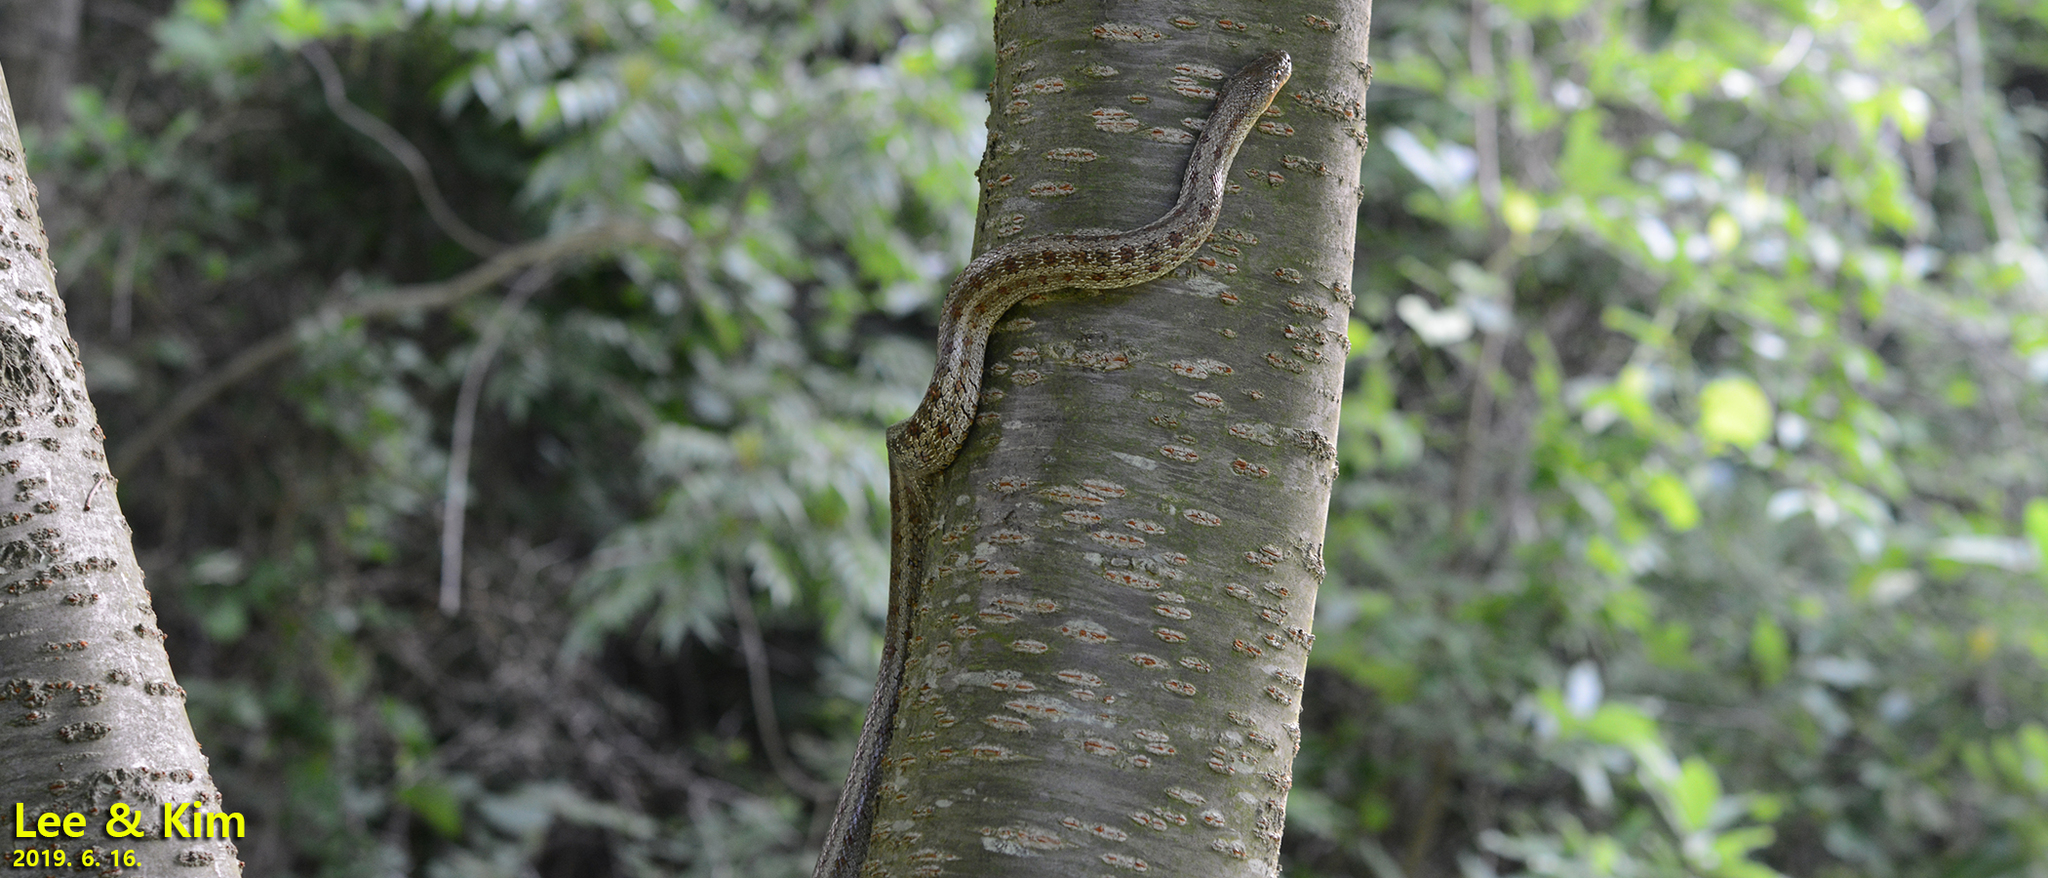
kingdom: Animalia
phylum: Chordata
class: Squamata
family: Colubridae
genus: Elaphe
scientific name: Elaphe dione
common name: Dione ratsnake
